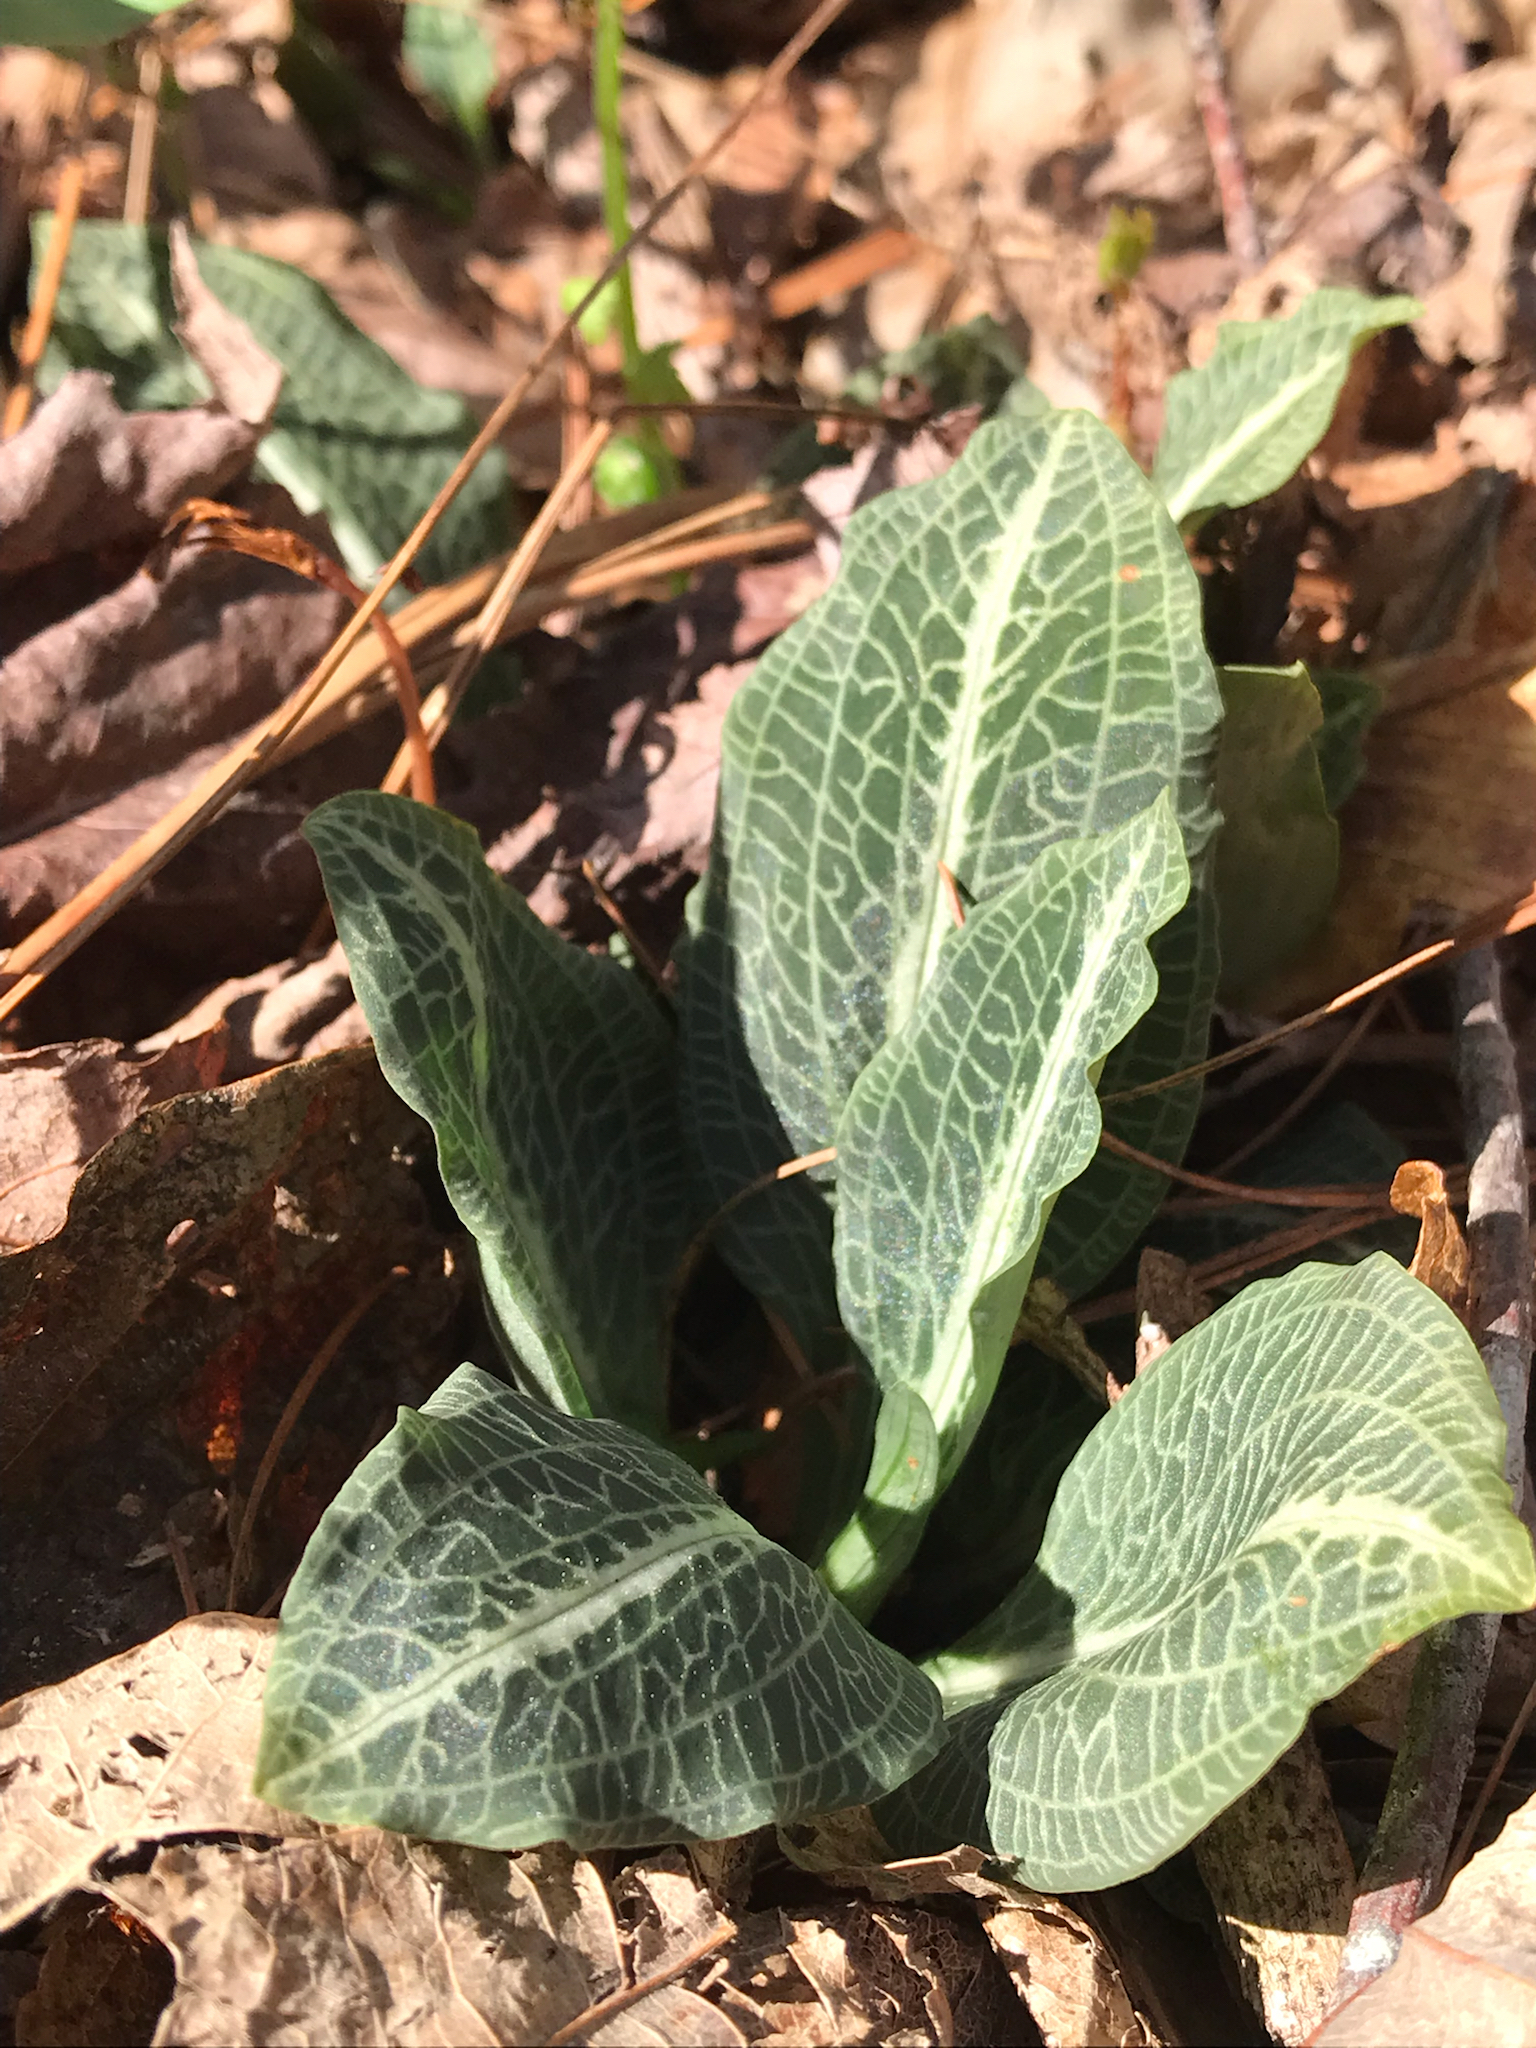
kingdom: Plantae
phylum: Tracheophyta
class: Liliopsida
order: Asparagales
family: Orchidaceae
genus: Goodyera
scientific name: Goodyera pubescens
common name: Downy rattlesnake-plantain
